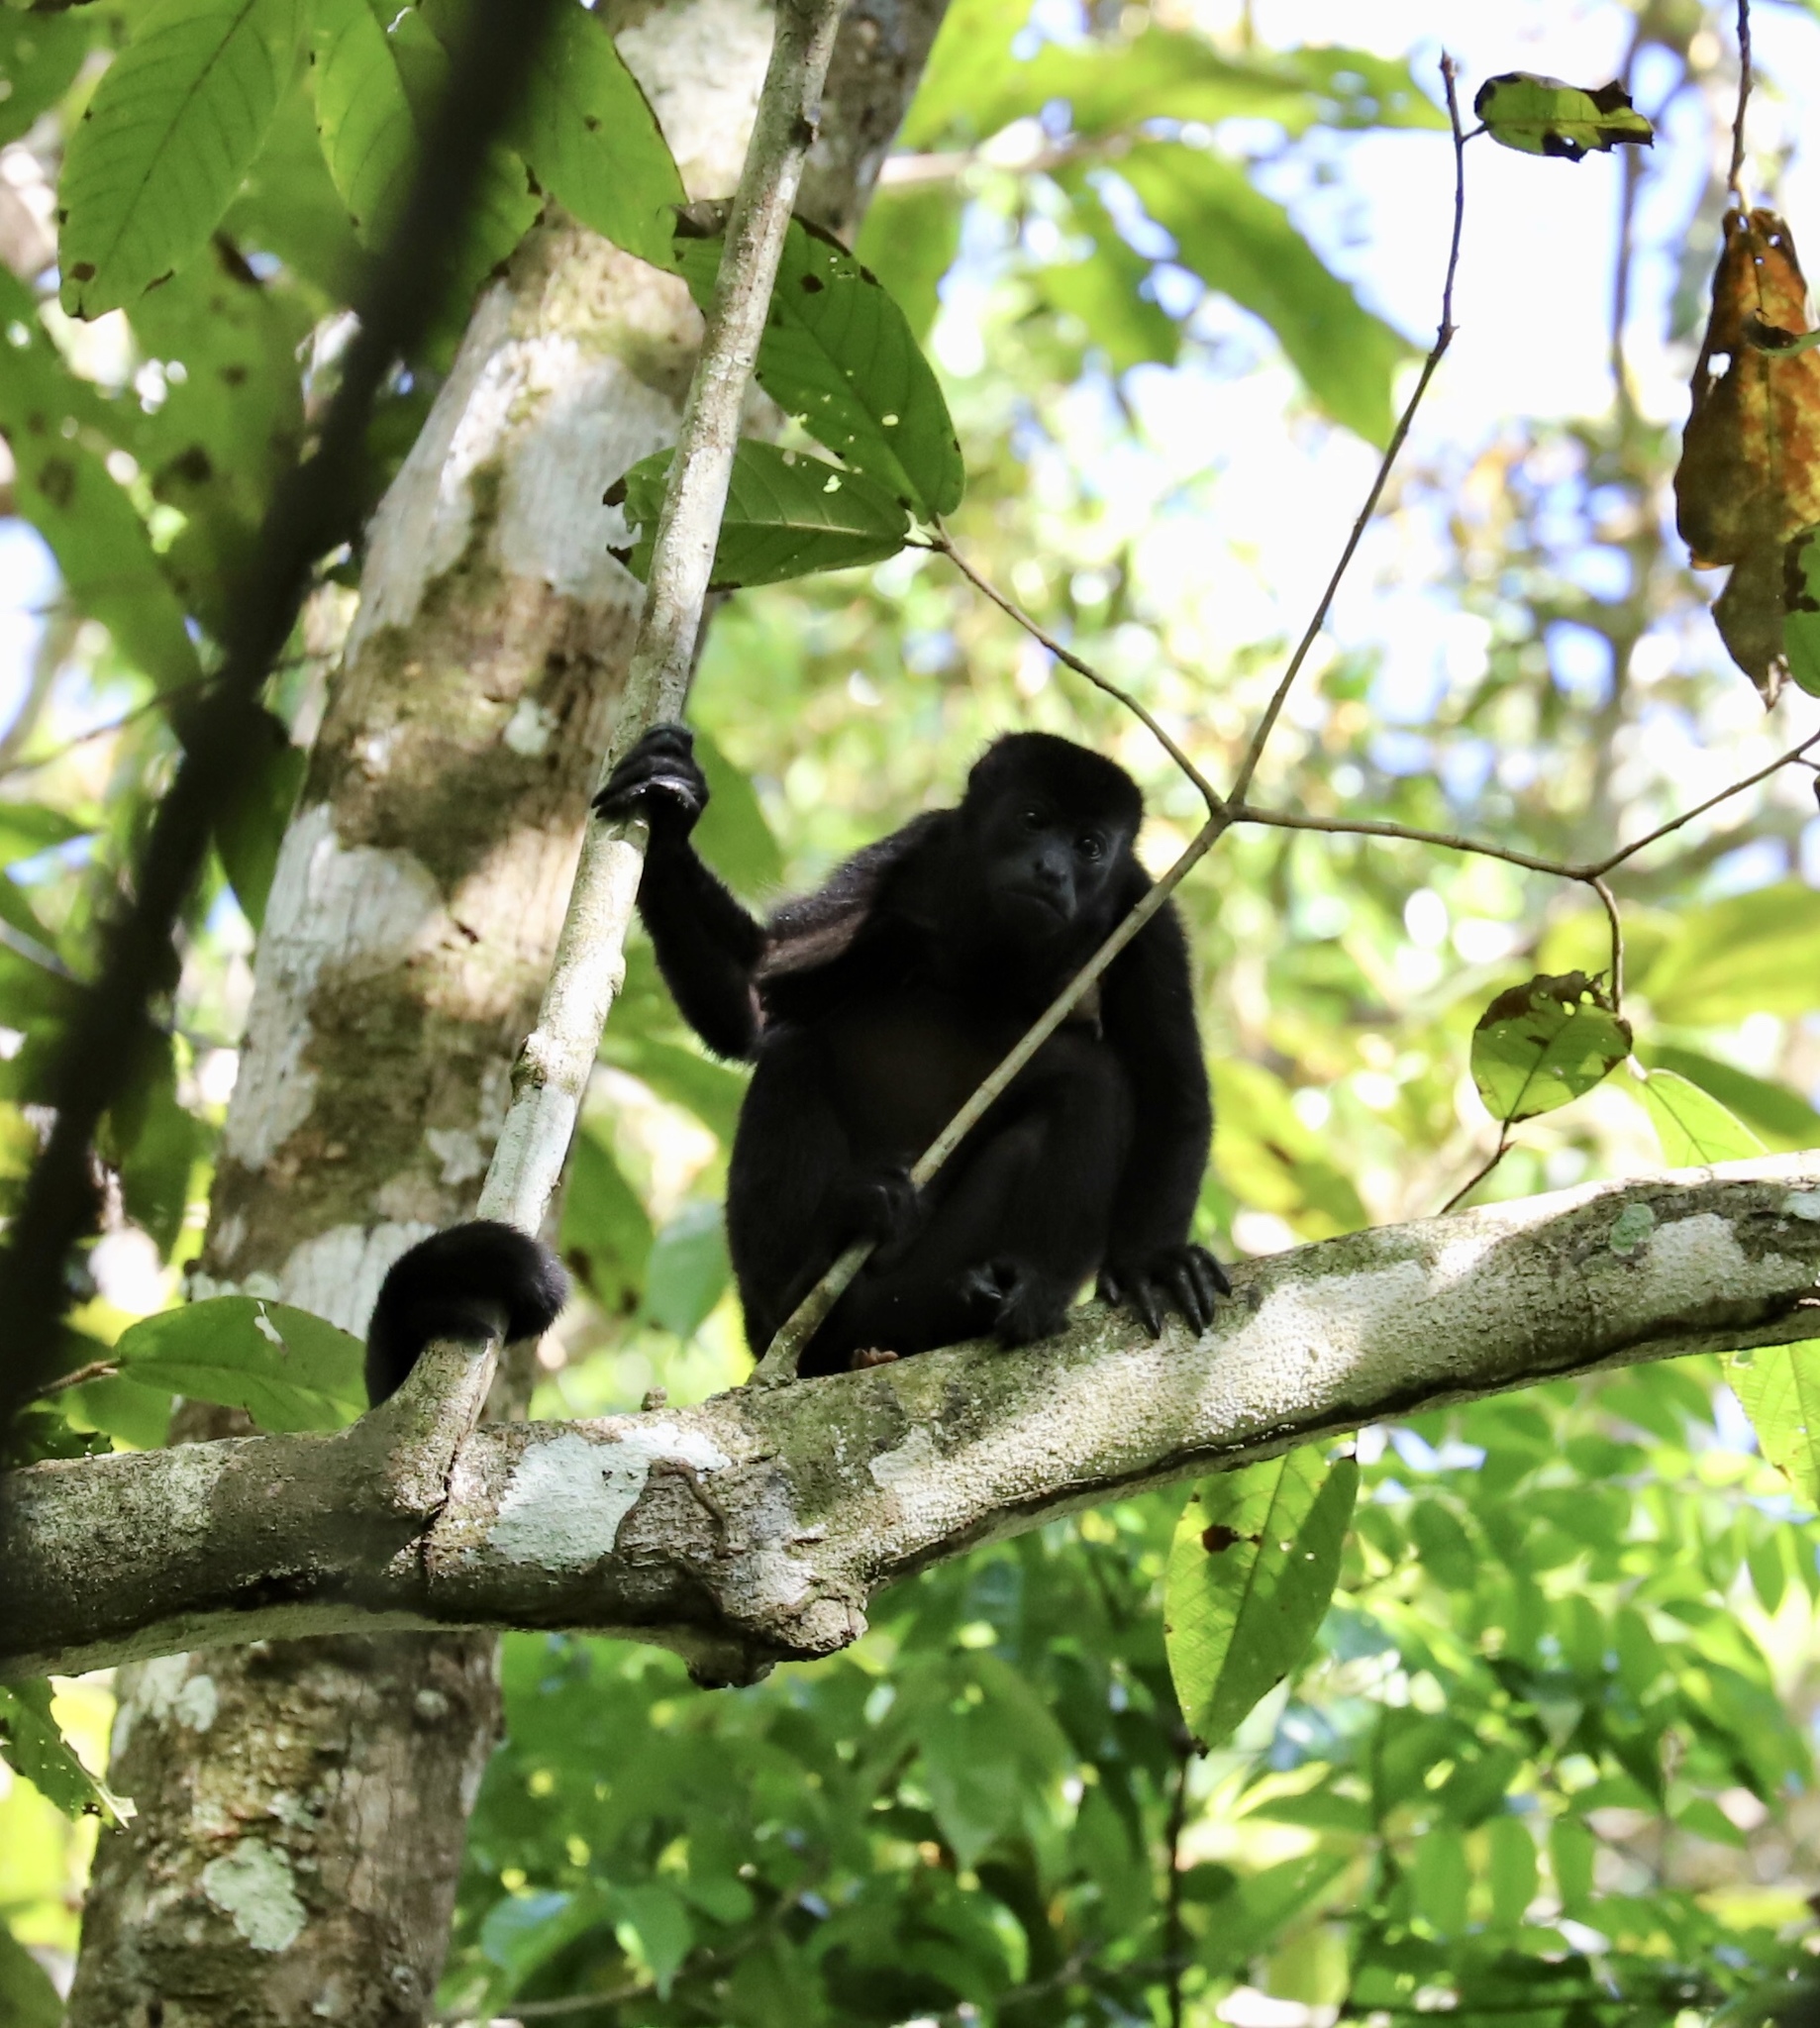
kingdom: Animalia
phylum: Chordata
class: Mammalia
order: Primates
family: Atelidae
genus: Alouatta
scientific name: Alouatta palliata
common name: Mantled howler
